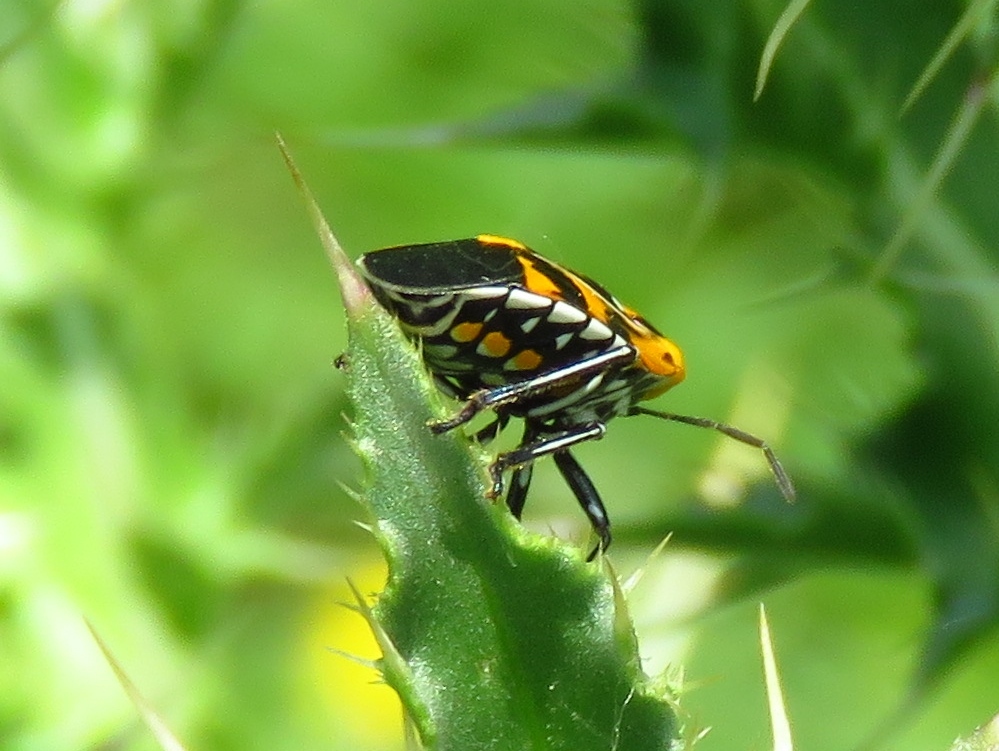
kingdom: Animalia
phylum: Arthropoda
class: Insecta
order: Hemiptera
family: Pentatomidae
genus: Murgantia
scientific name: Murgantia histrionica
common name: Harlequin bug
